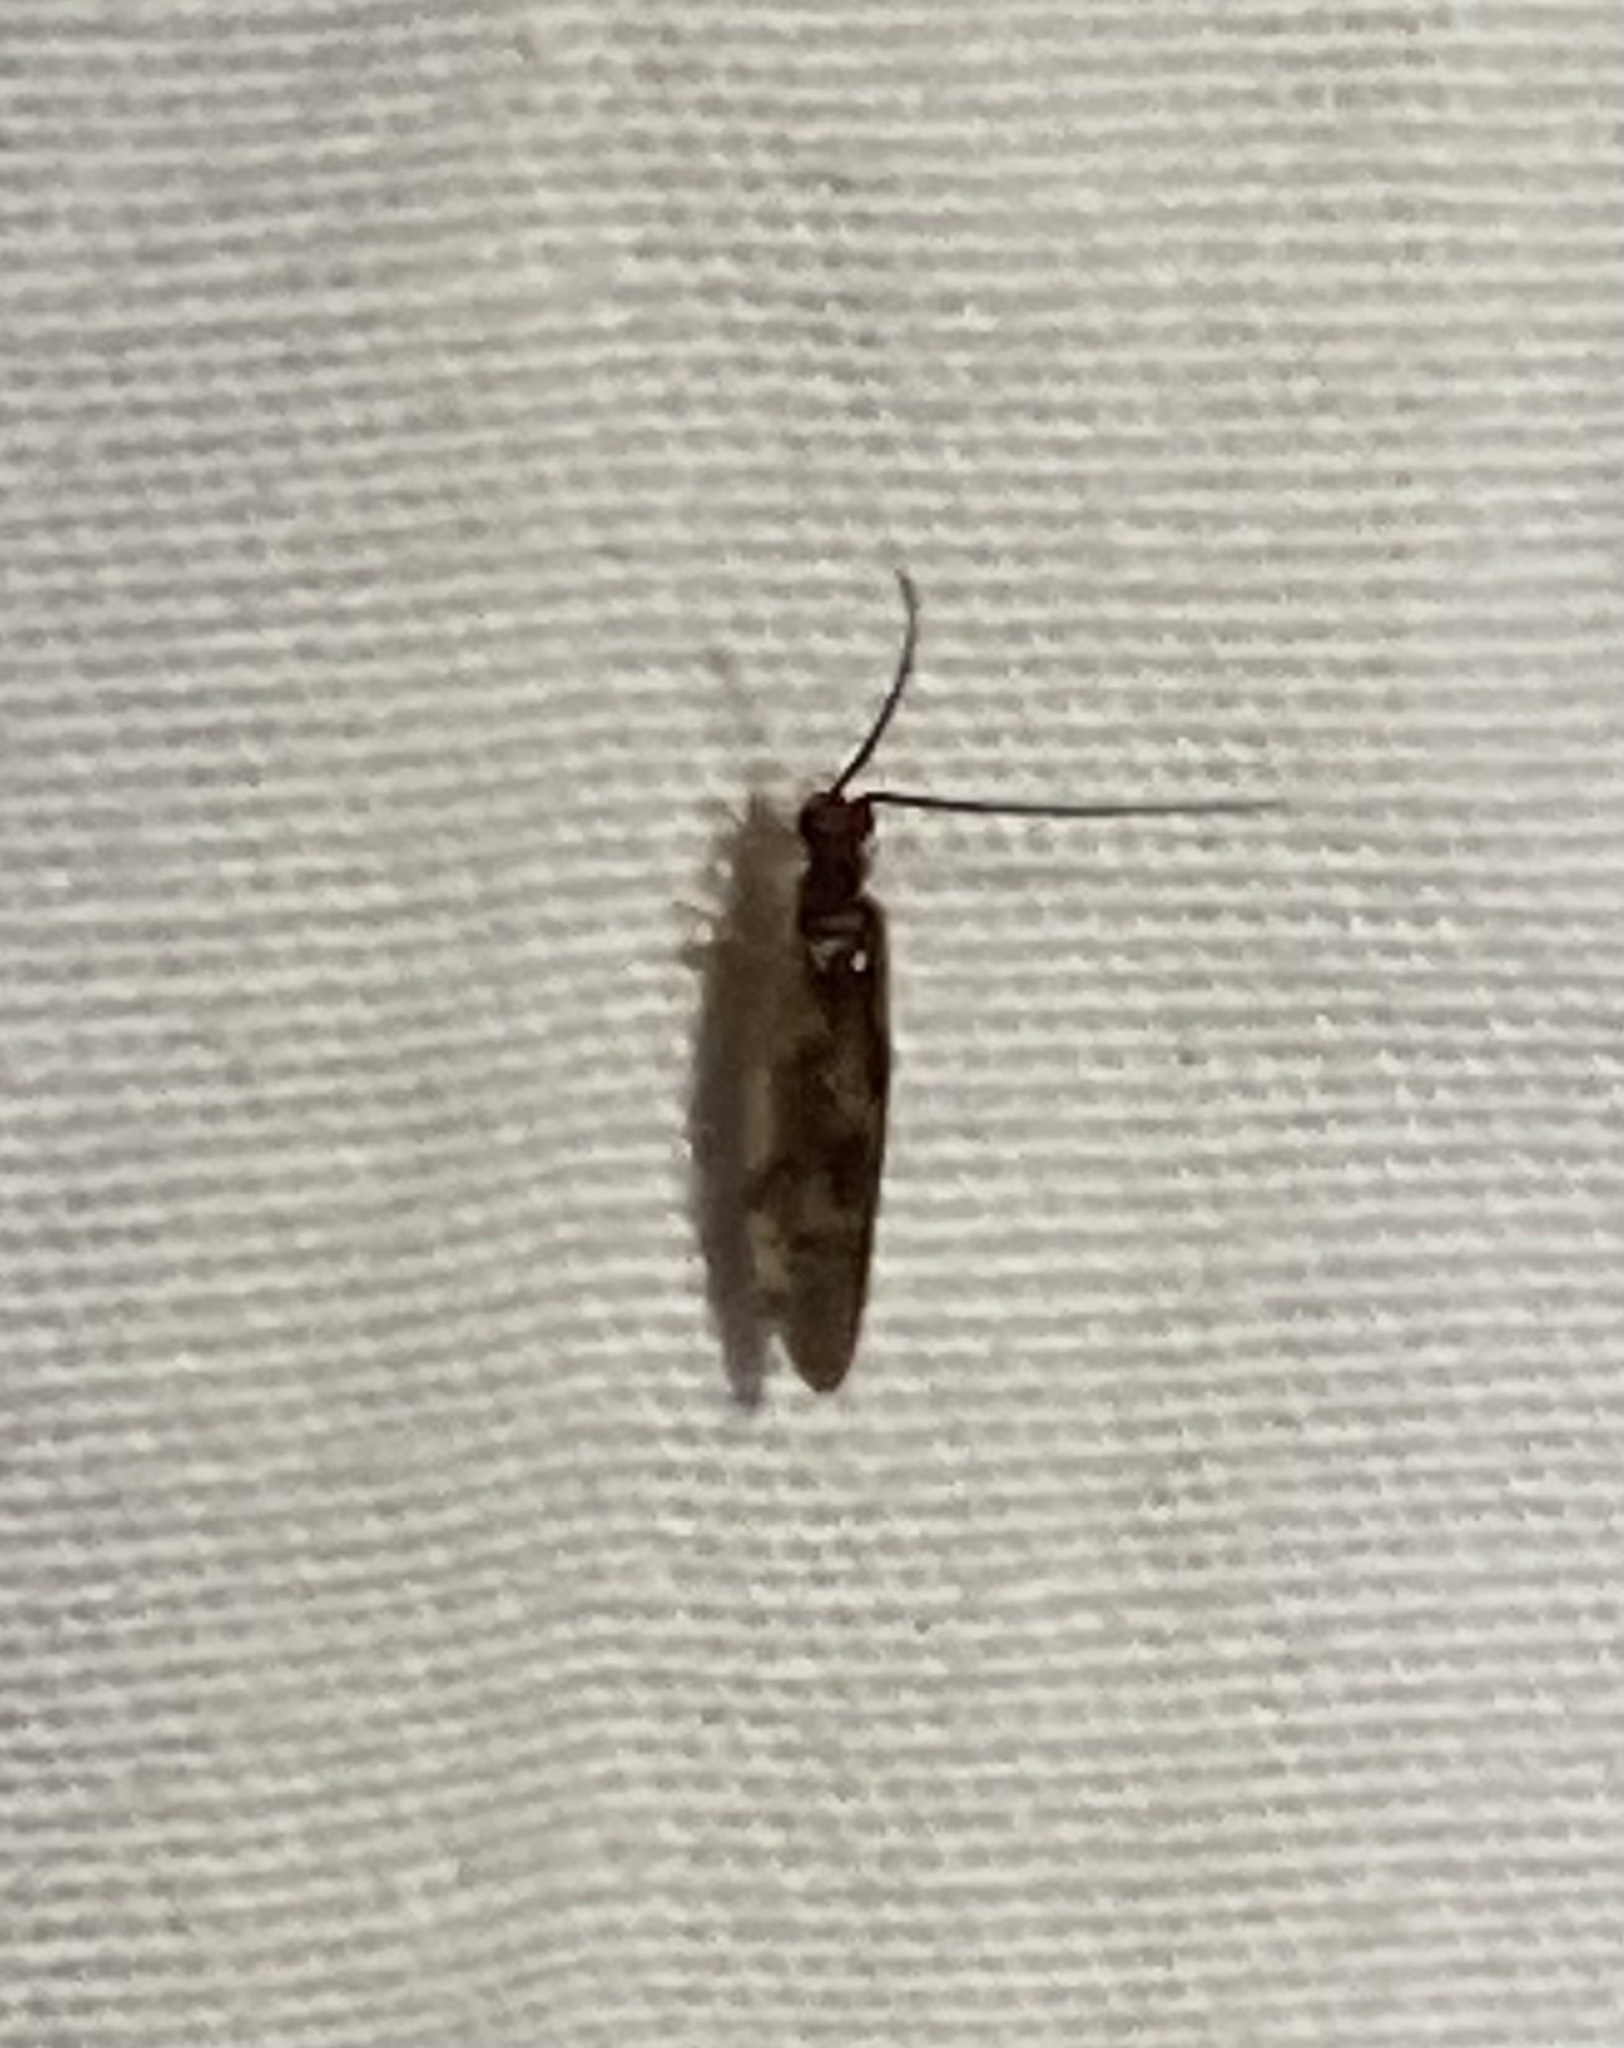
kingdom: Animalia
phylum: Arthropoda
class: Insecta
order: Neuroptera
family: Sisyridae
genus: Climacia
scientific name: Climacia areolaris
